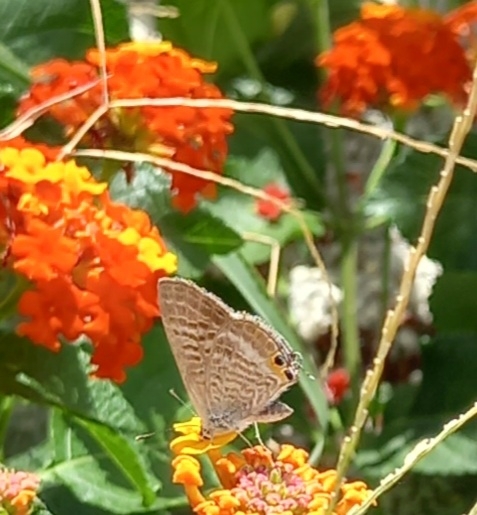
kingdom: Animalia
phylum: Arthropoda
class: Insecta
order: Lepidoptera
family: Lycaenidae
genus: Lampides
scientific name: Lampides boeticus
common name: Long-tailed blue
